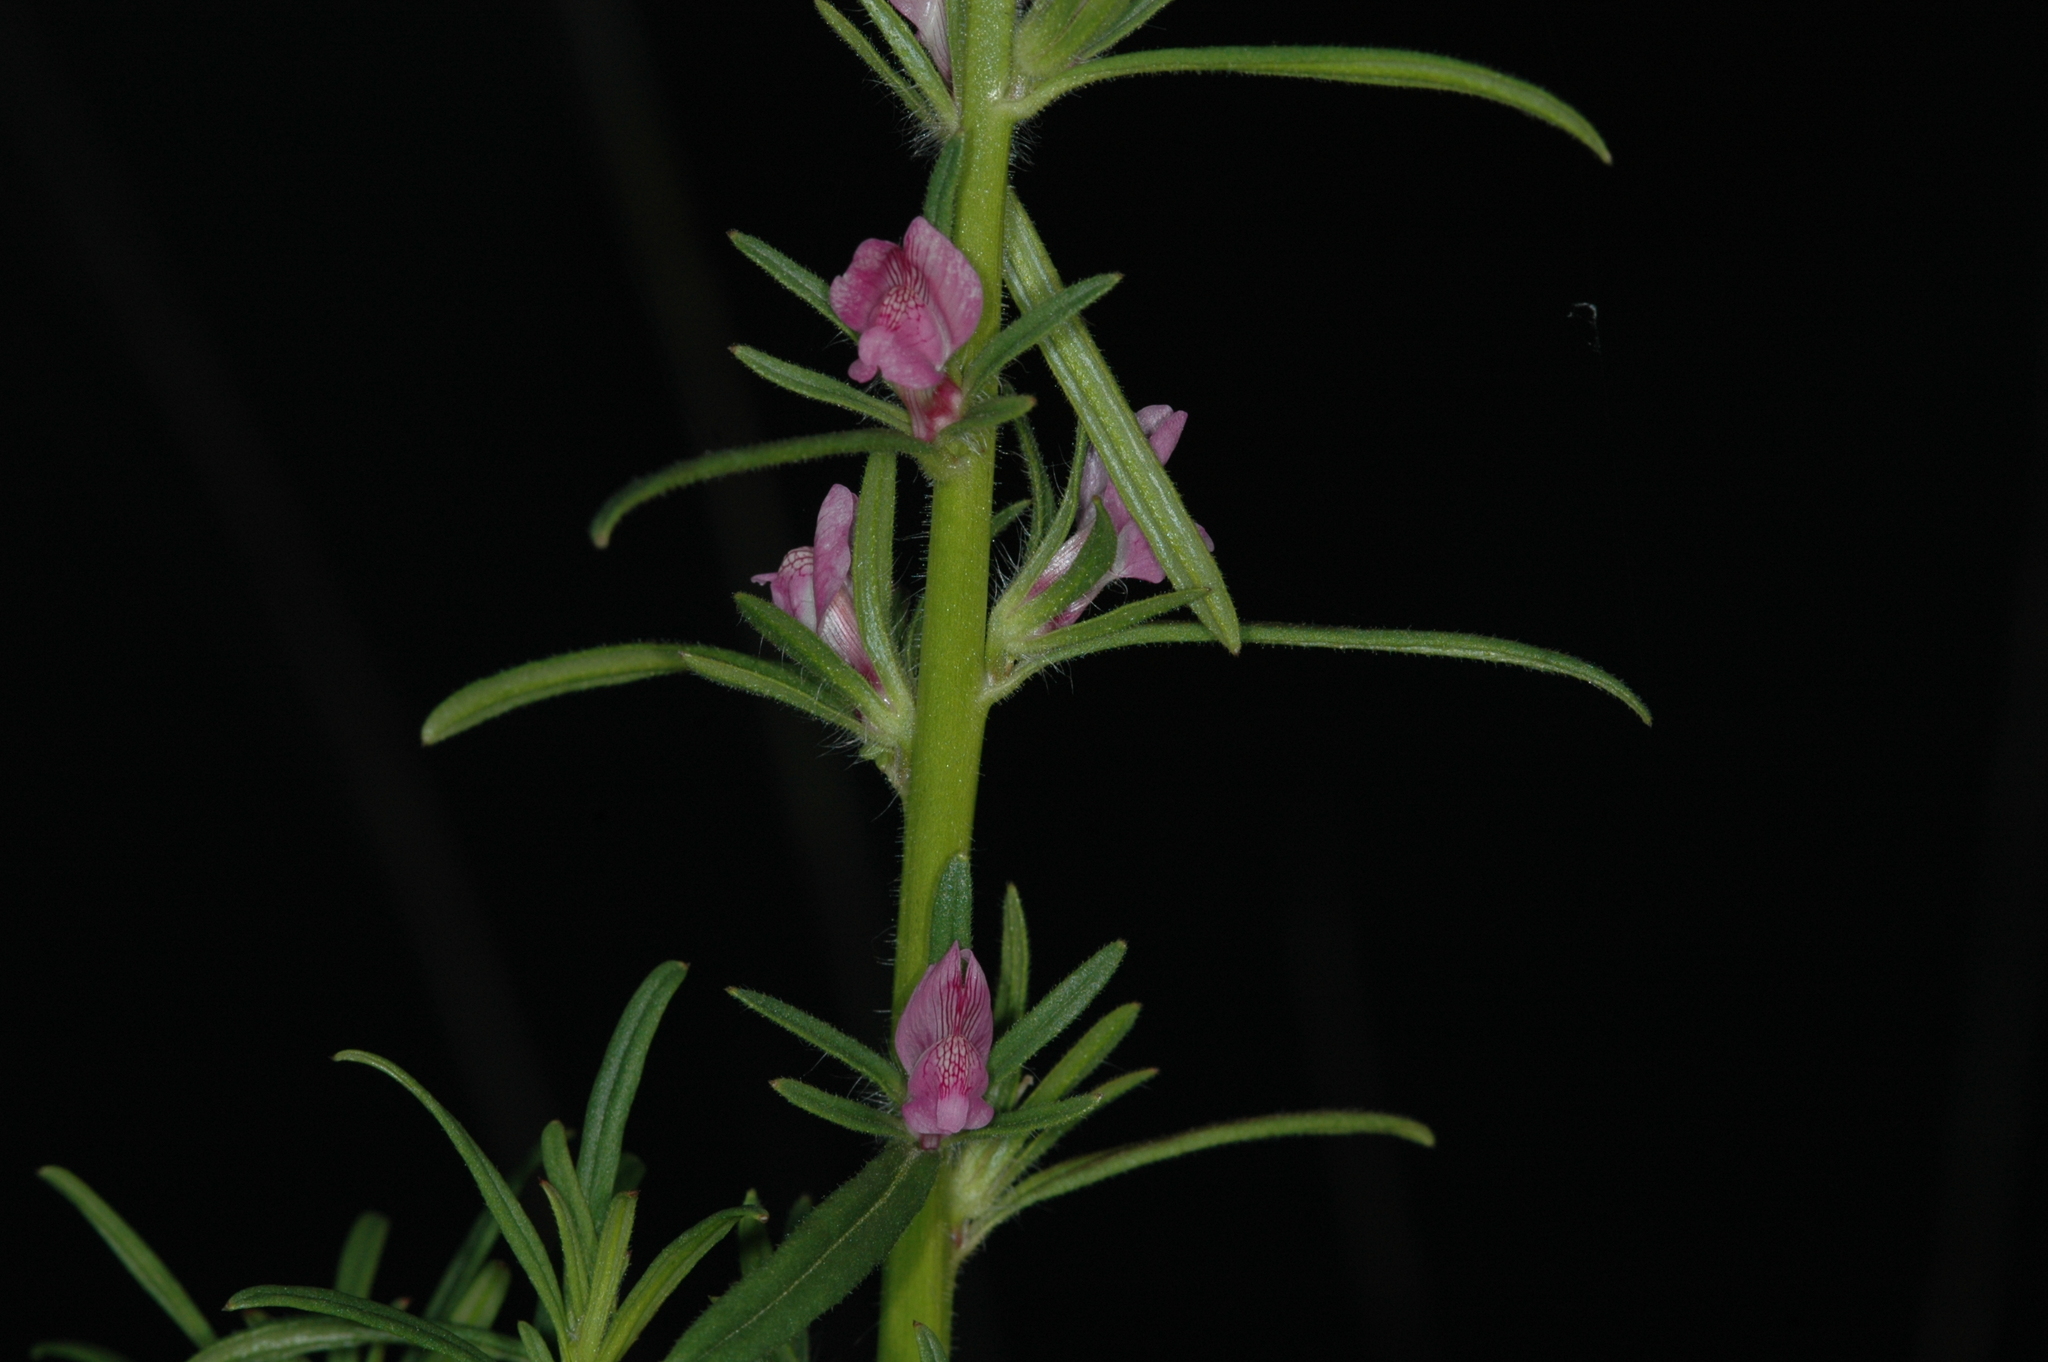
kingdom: Plantae
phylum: Tracheophyta
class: Magnoliopsida
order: Lamiales
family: Plantaginaceae
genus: Misopates
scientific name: Misopates orontium
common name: Weasel's-snout
